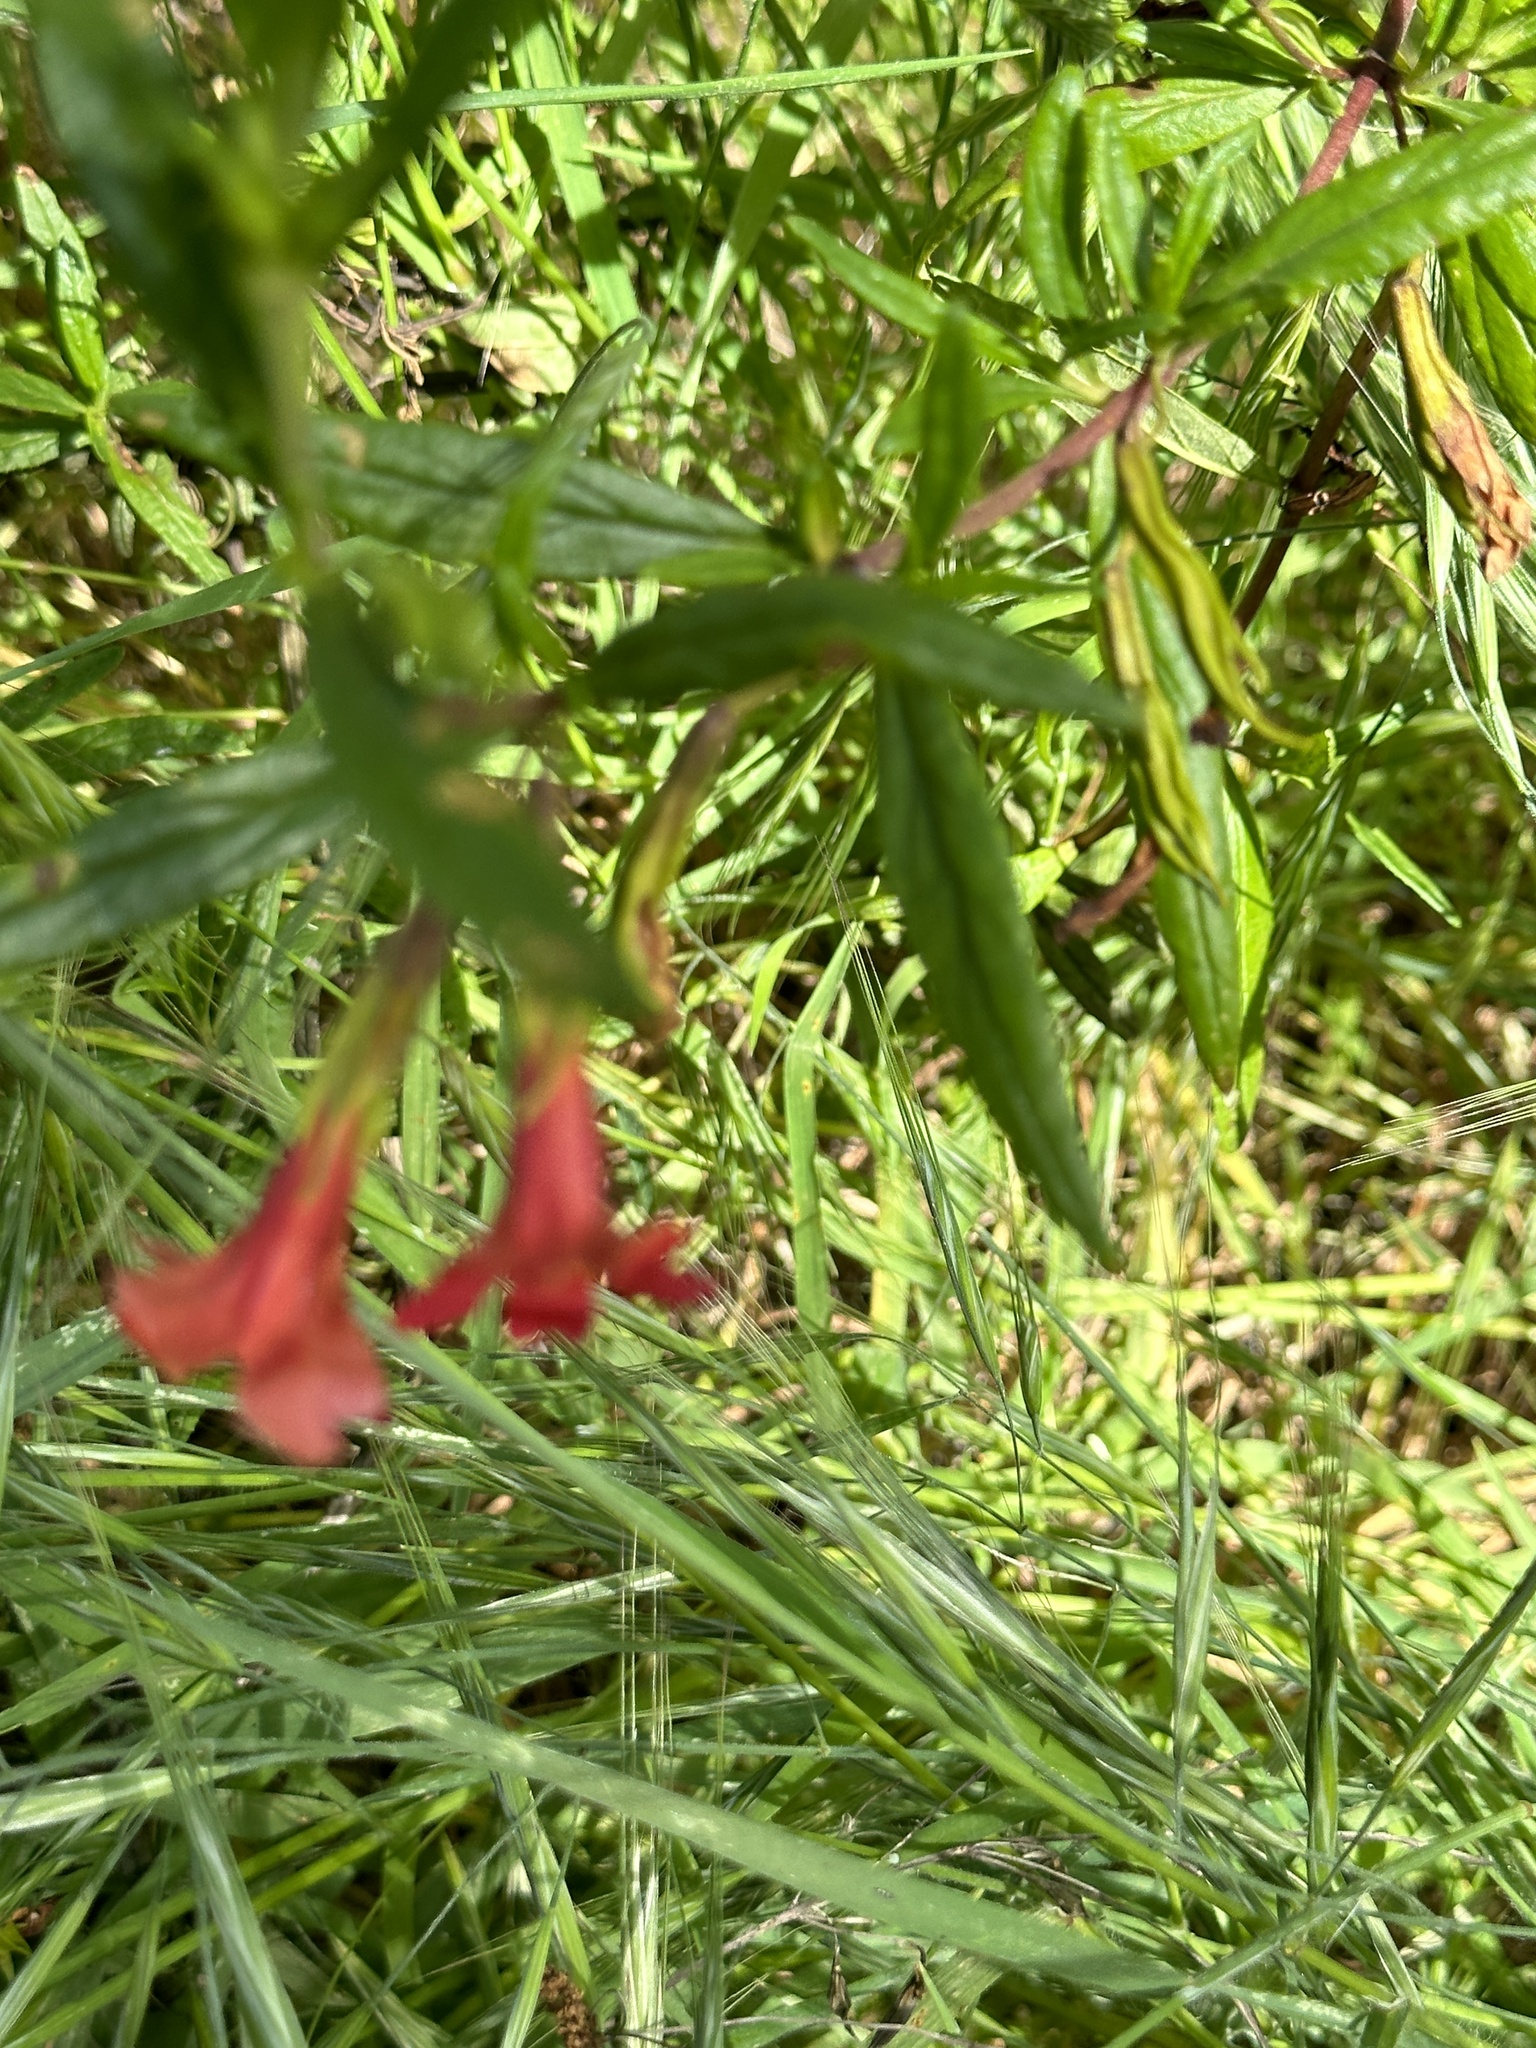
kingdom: Plantae
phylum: Tracheophyta
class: Magnoliopsida
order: Lamiales
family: Phrymaceae
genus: Diplacus
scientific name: Diplacus puniceus
